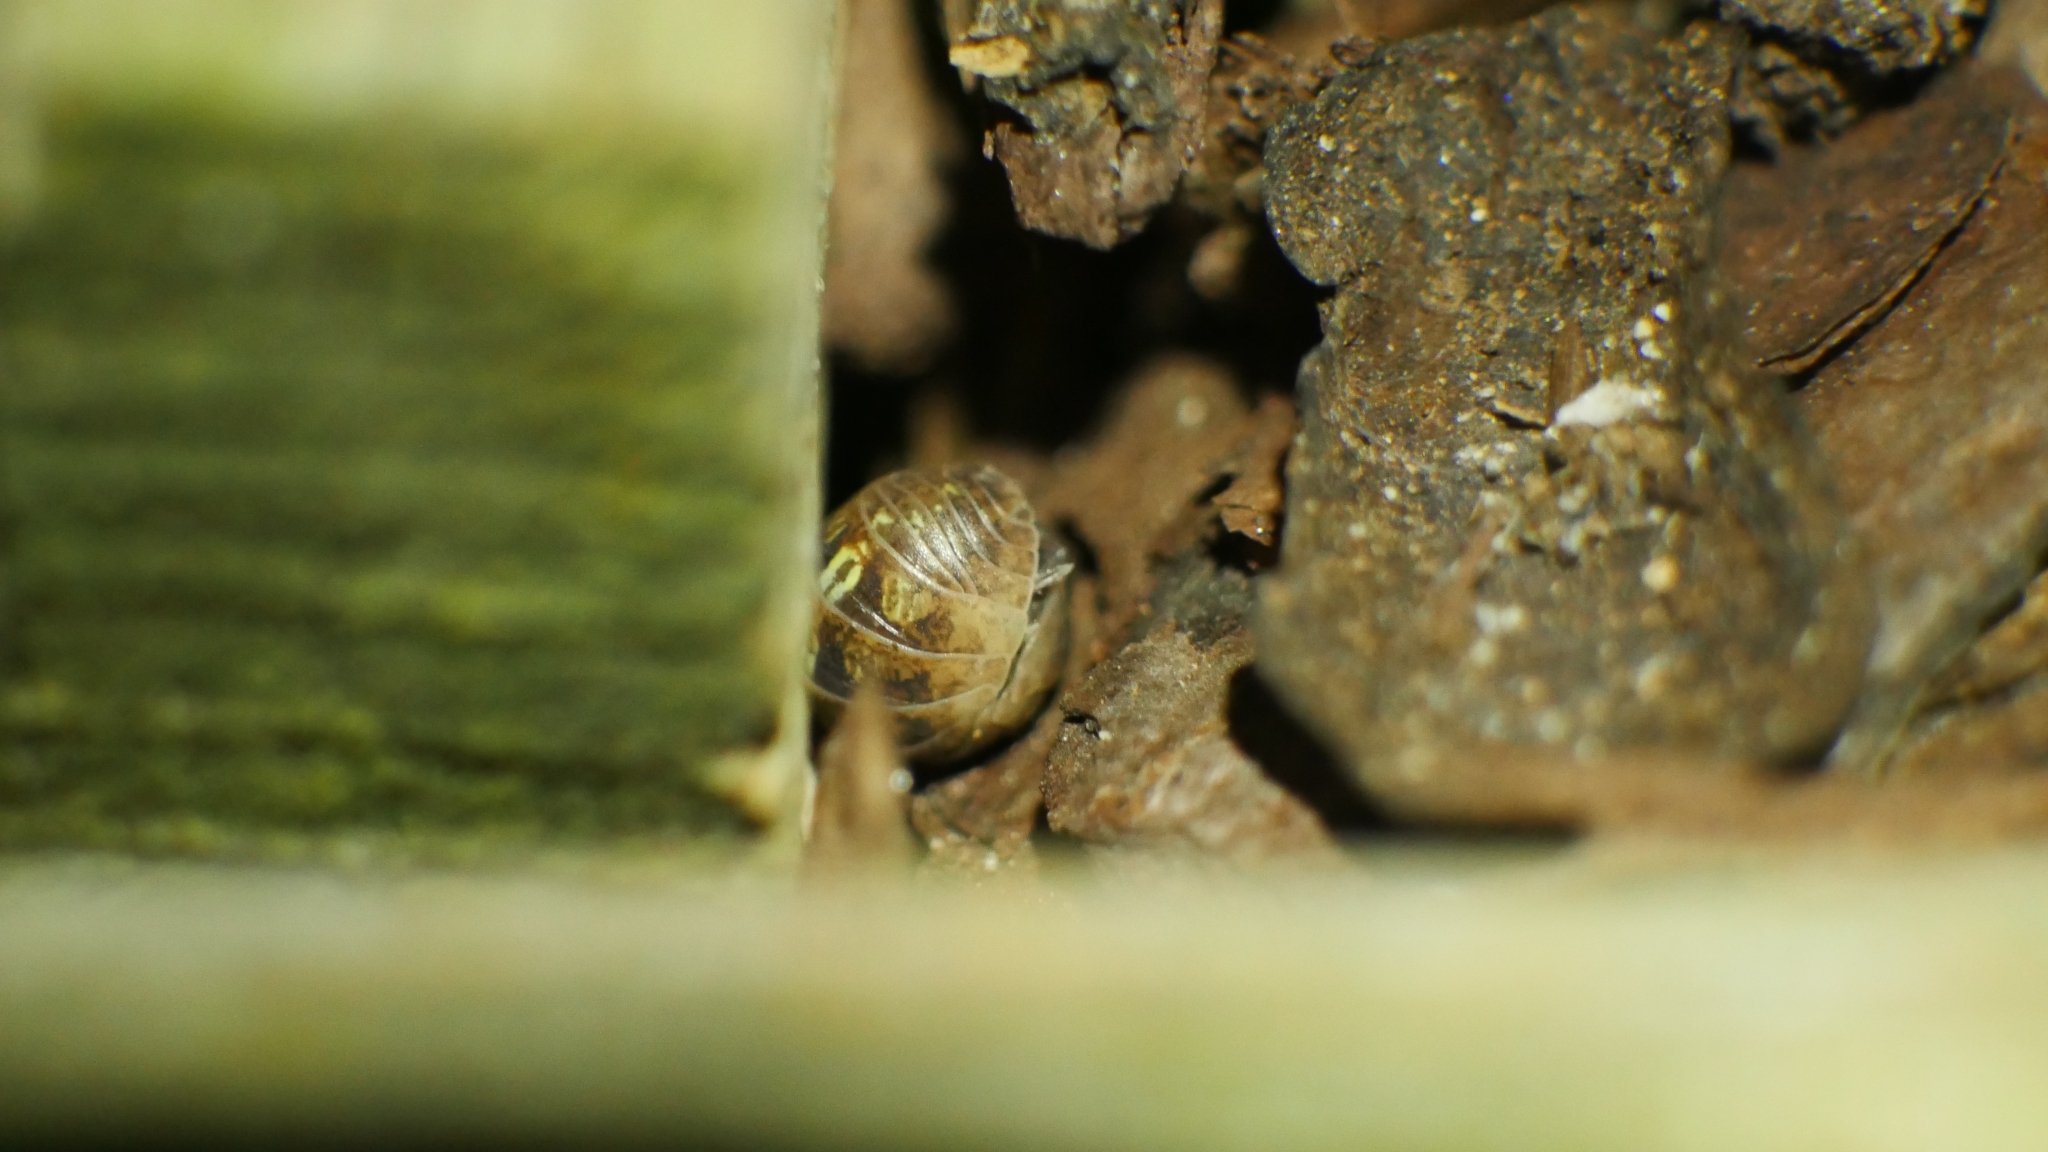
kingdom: Animalia
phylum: Arthropoda
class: Malacostraca
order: Isopoda
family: Armadillidiidae
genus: Armadillidium
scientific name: Armadillidium vulgare
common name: Common pill woodlouse
